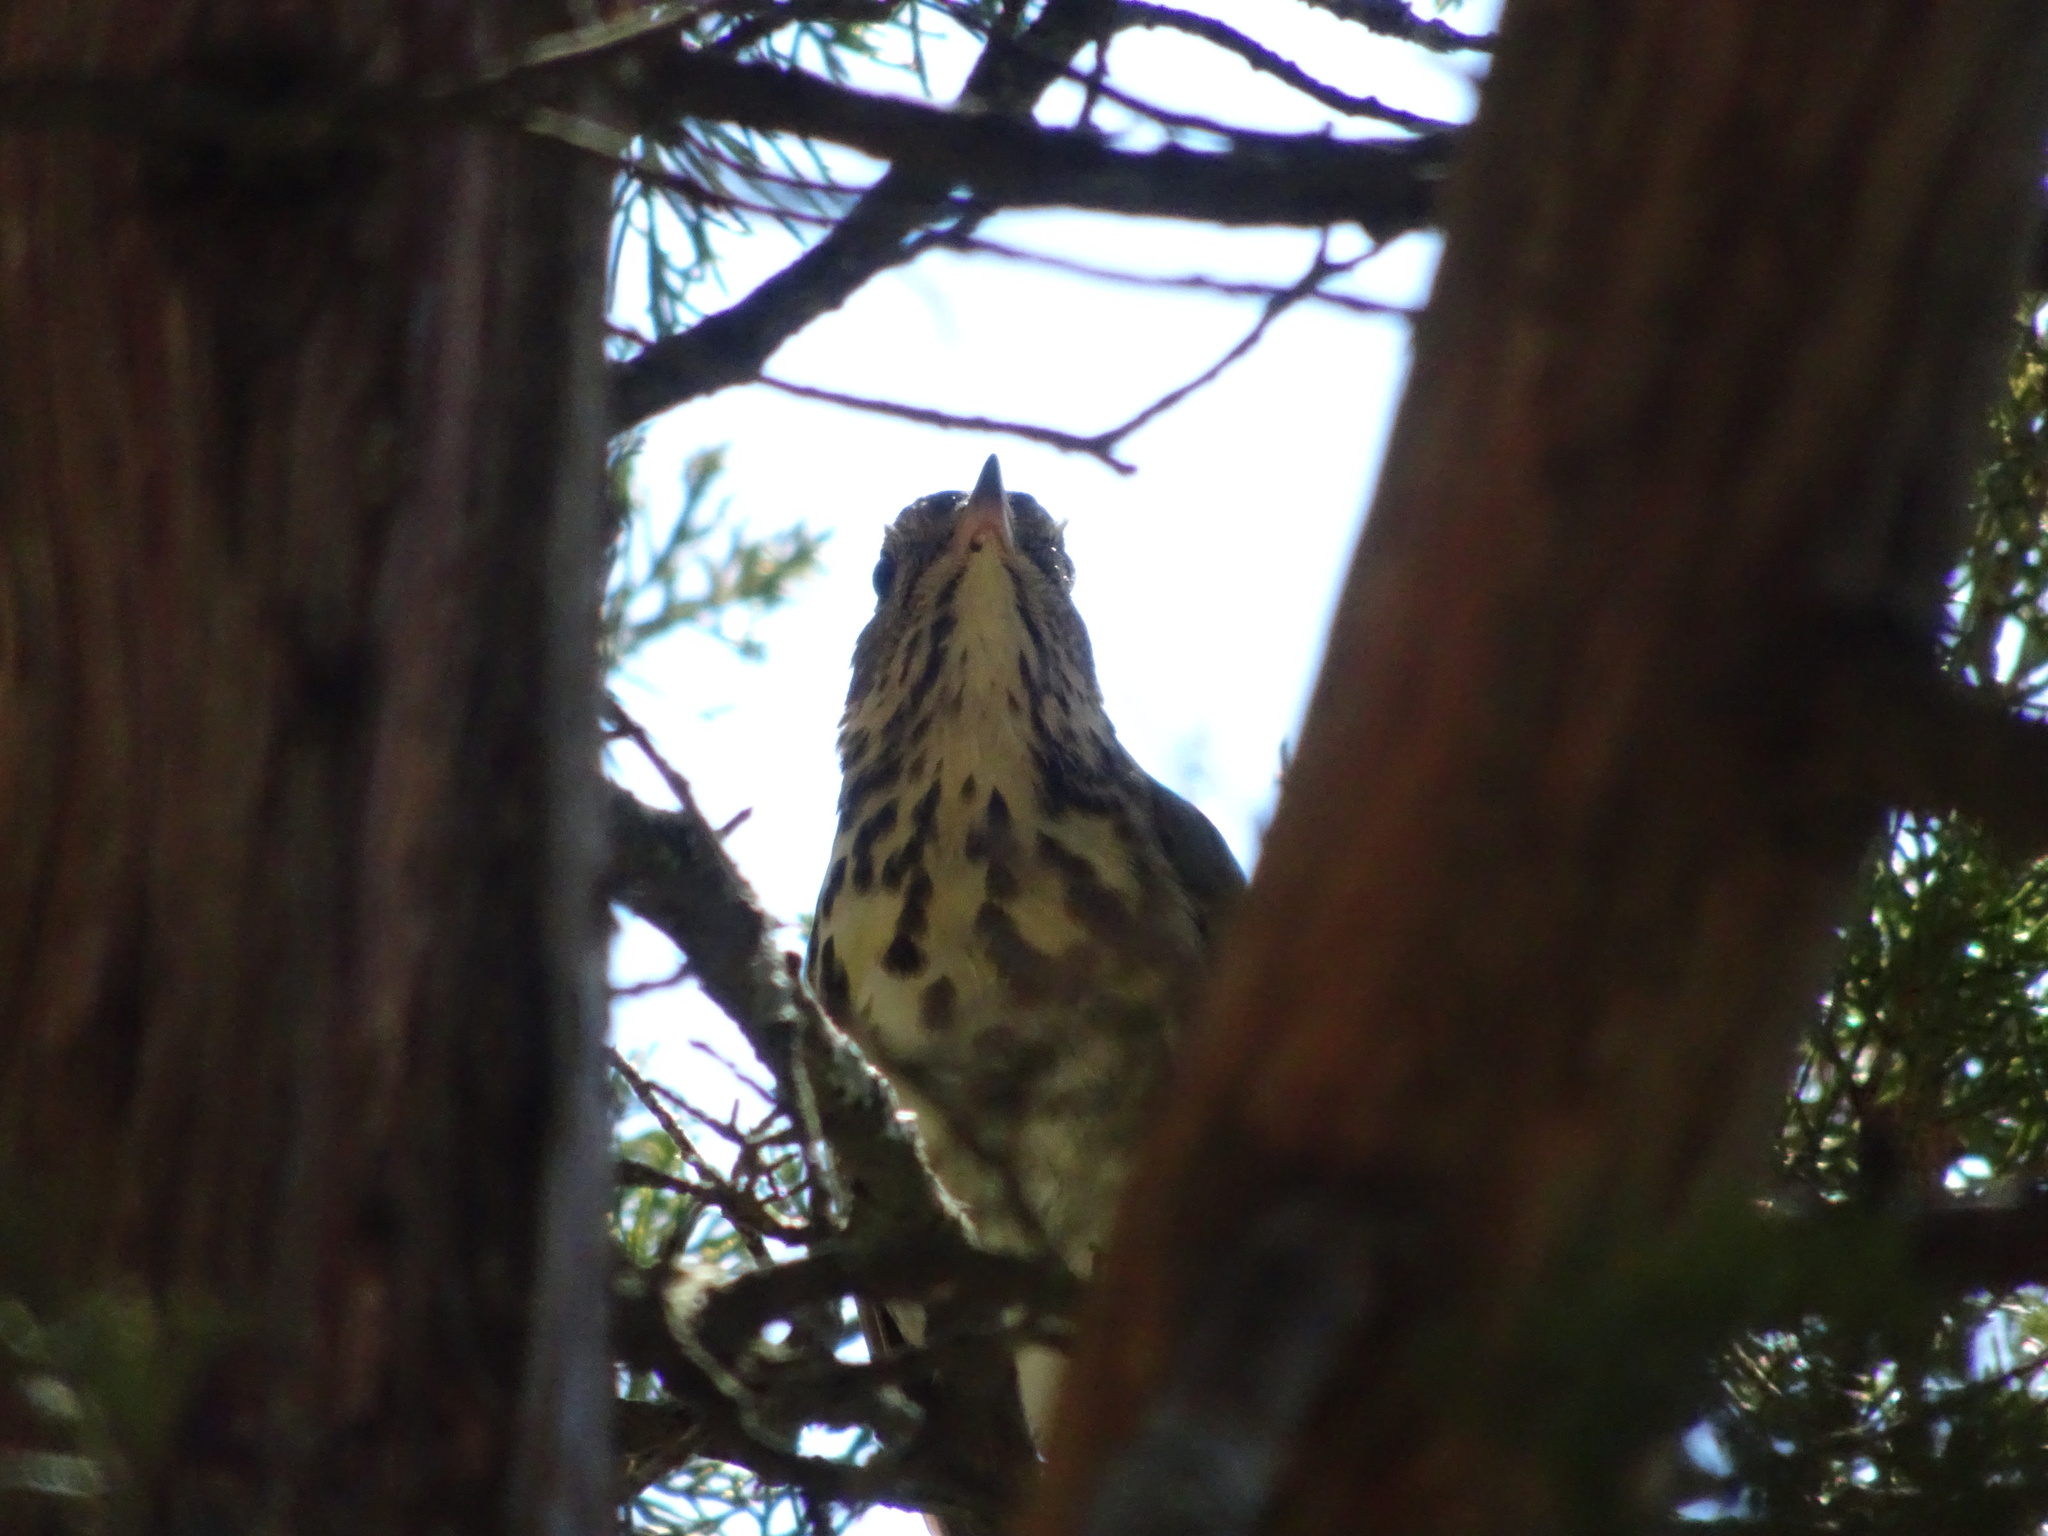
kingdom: Animalia
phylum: Chordata
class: Aves
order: Passeriformes
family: Turdidae
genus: Catharus
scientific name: Catharus guttatus
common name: Hermit thrush
